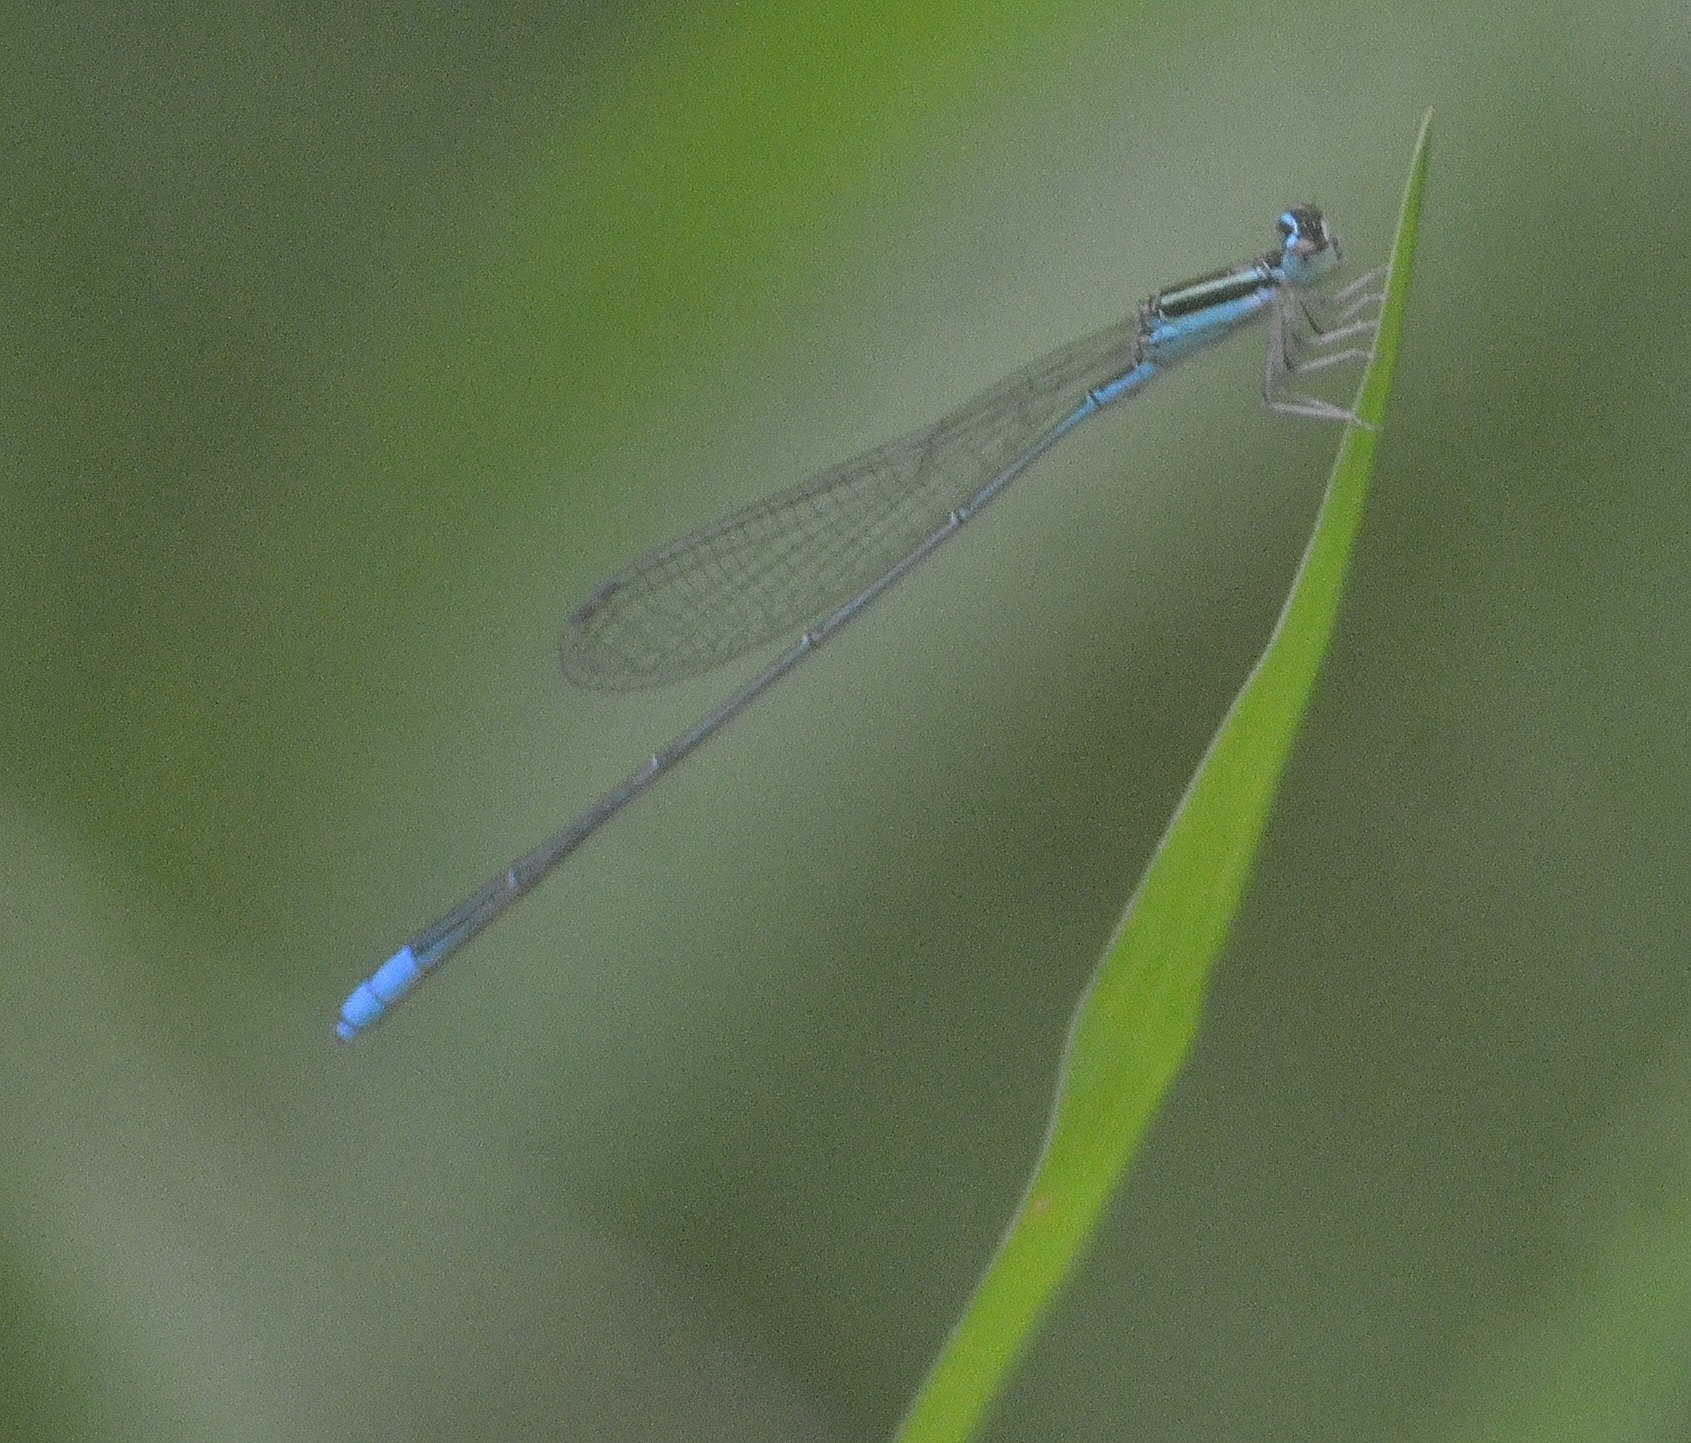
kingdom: Animalia
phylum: Arthropoda
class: Insecta
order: Odonata
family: Coenagrionidae
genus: Aciagrion
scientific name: Aciagrion occidentale
